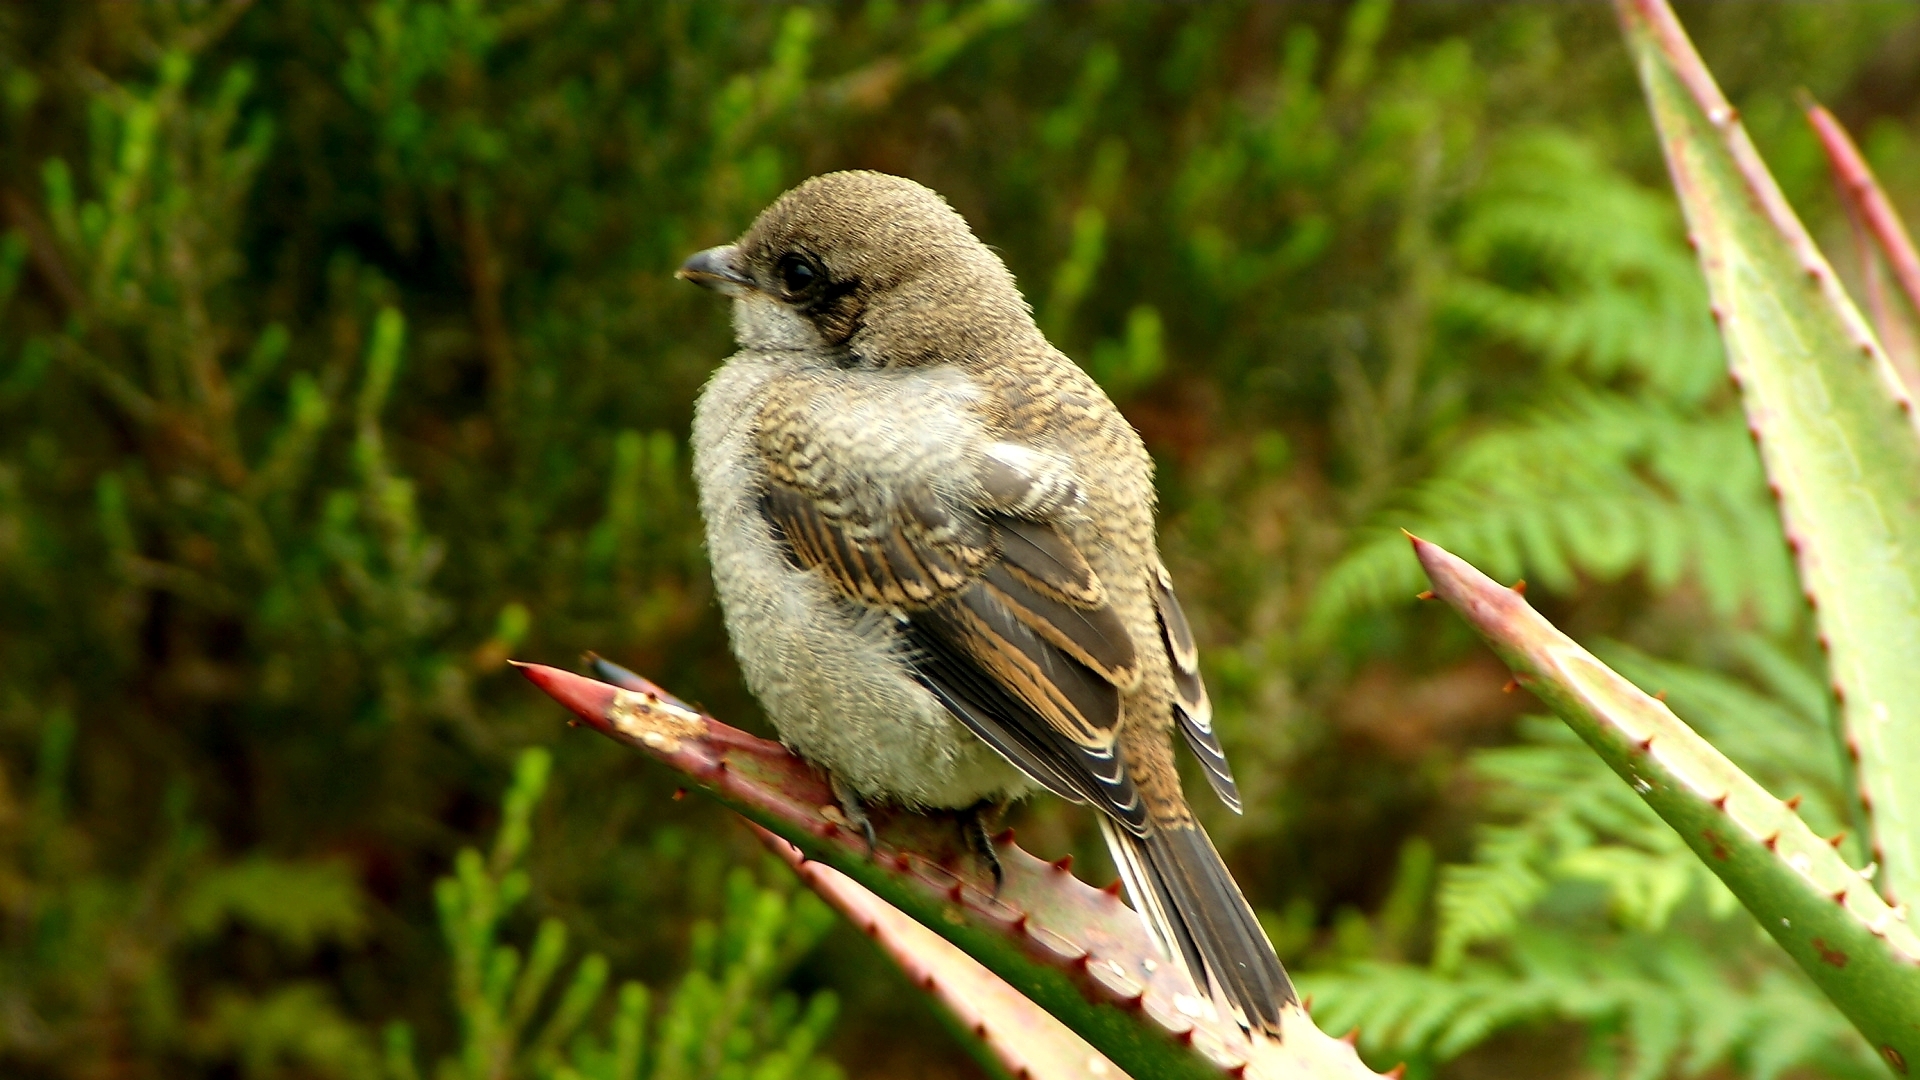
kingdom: Animalia
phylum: Chordata
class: Aves
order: Passeriformes
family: Laniidae
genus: Lanius
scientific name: Lanius collaris
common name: Southern fiscal
